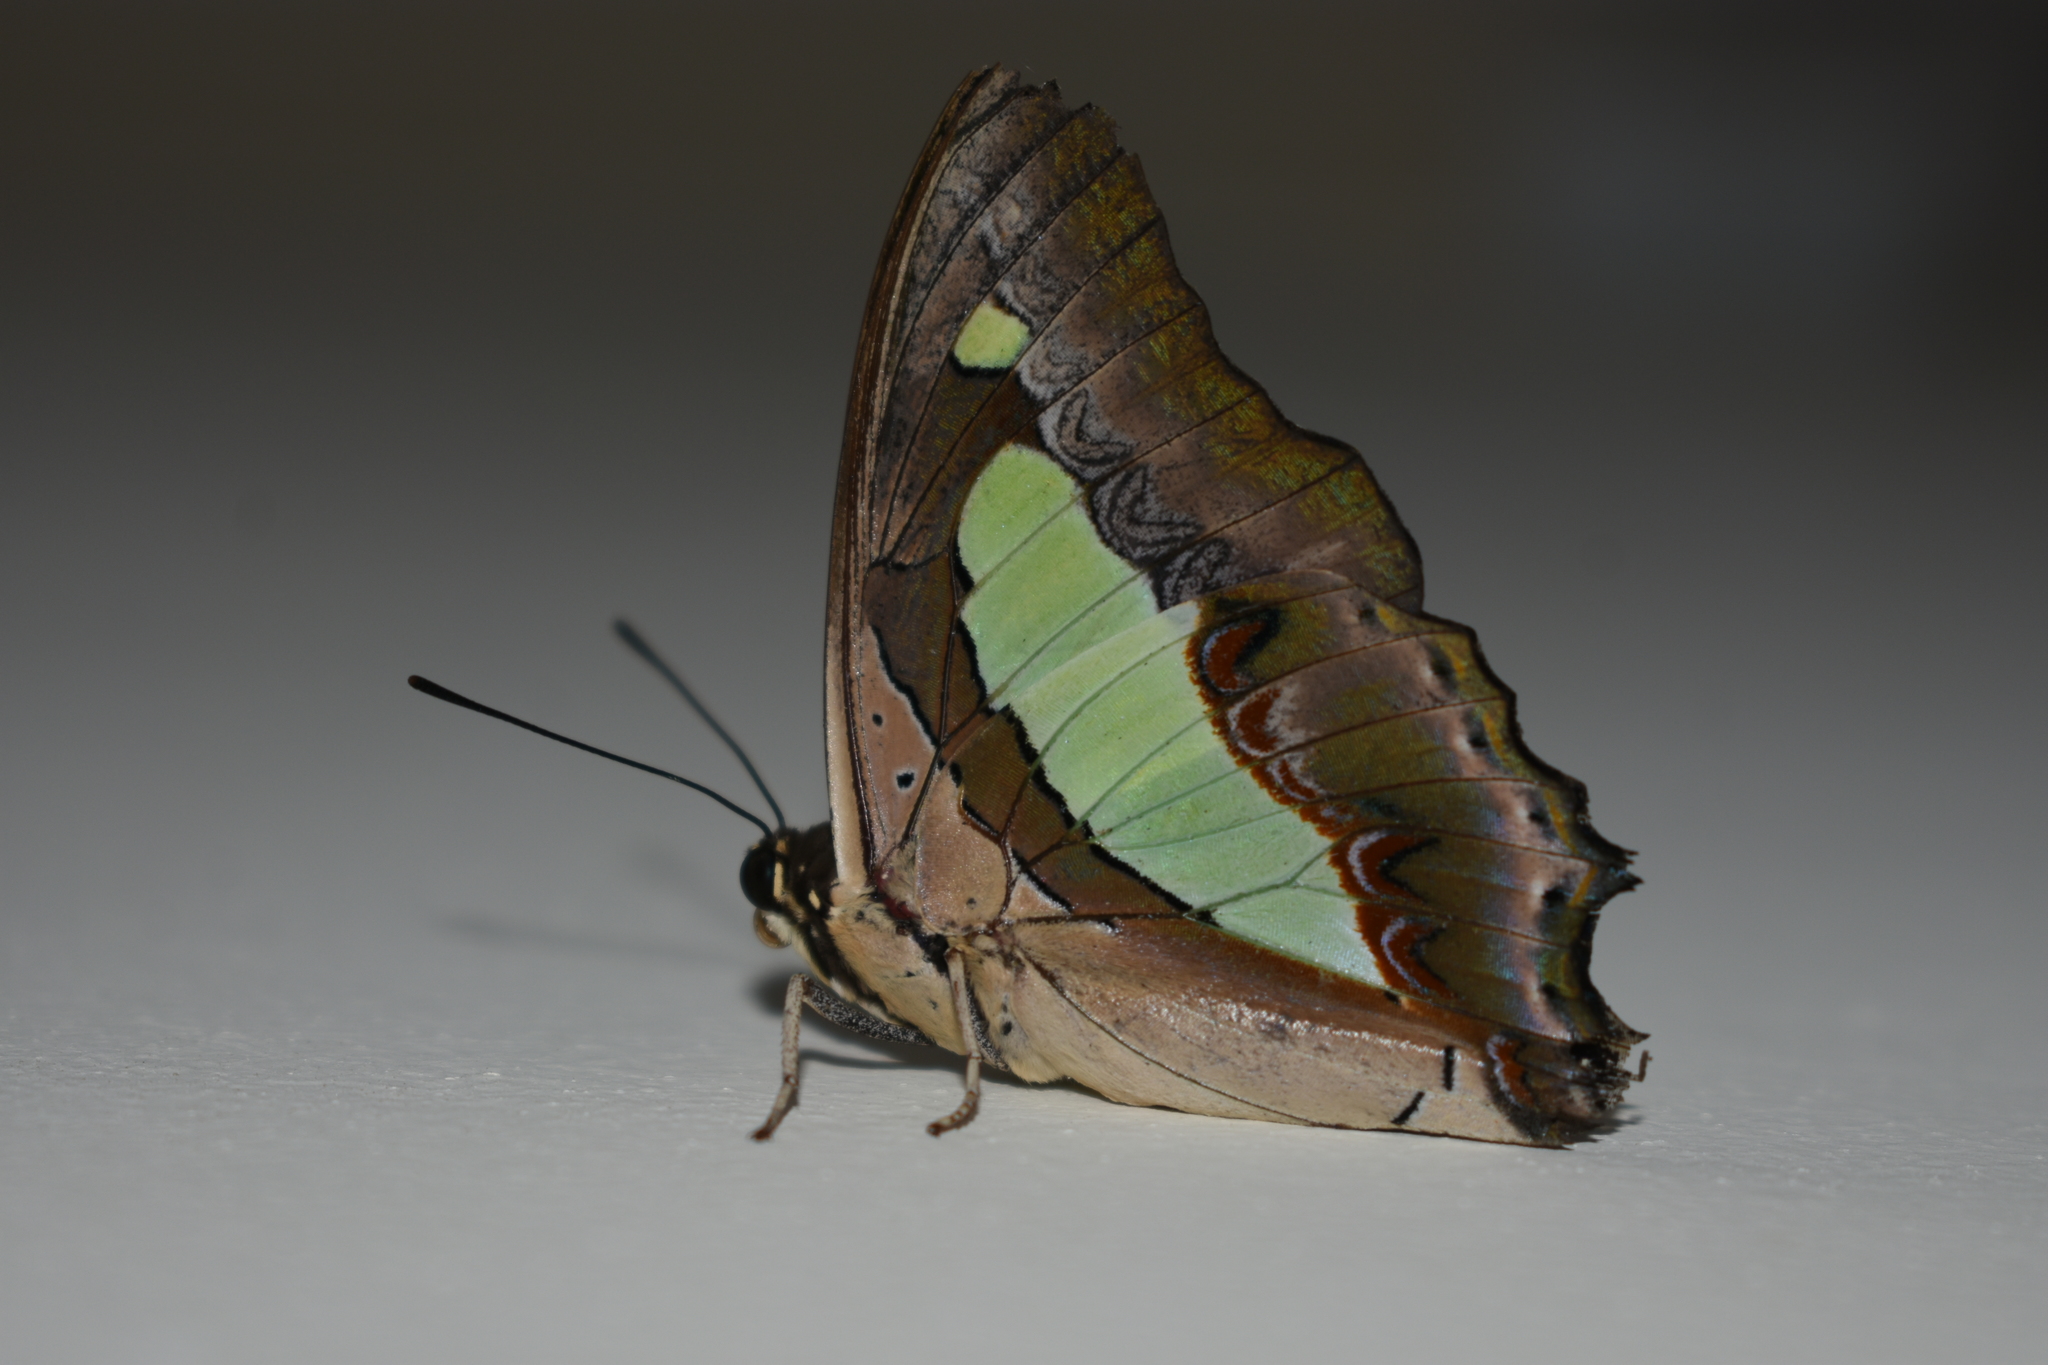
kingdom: Animalia
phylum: Arthropoda
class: Insecta
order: Lepidoptera
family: Nymphalidae
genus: Polyura
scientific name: Polyura
